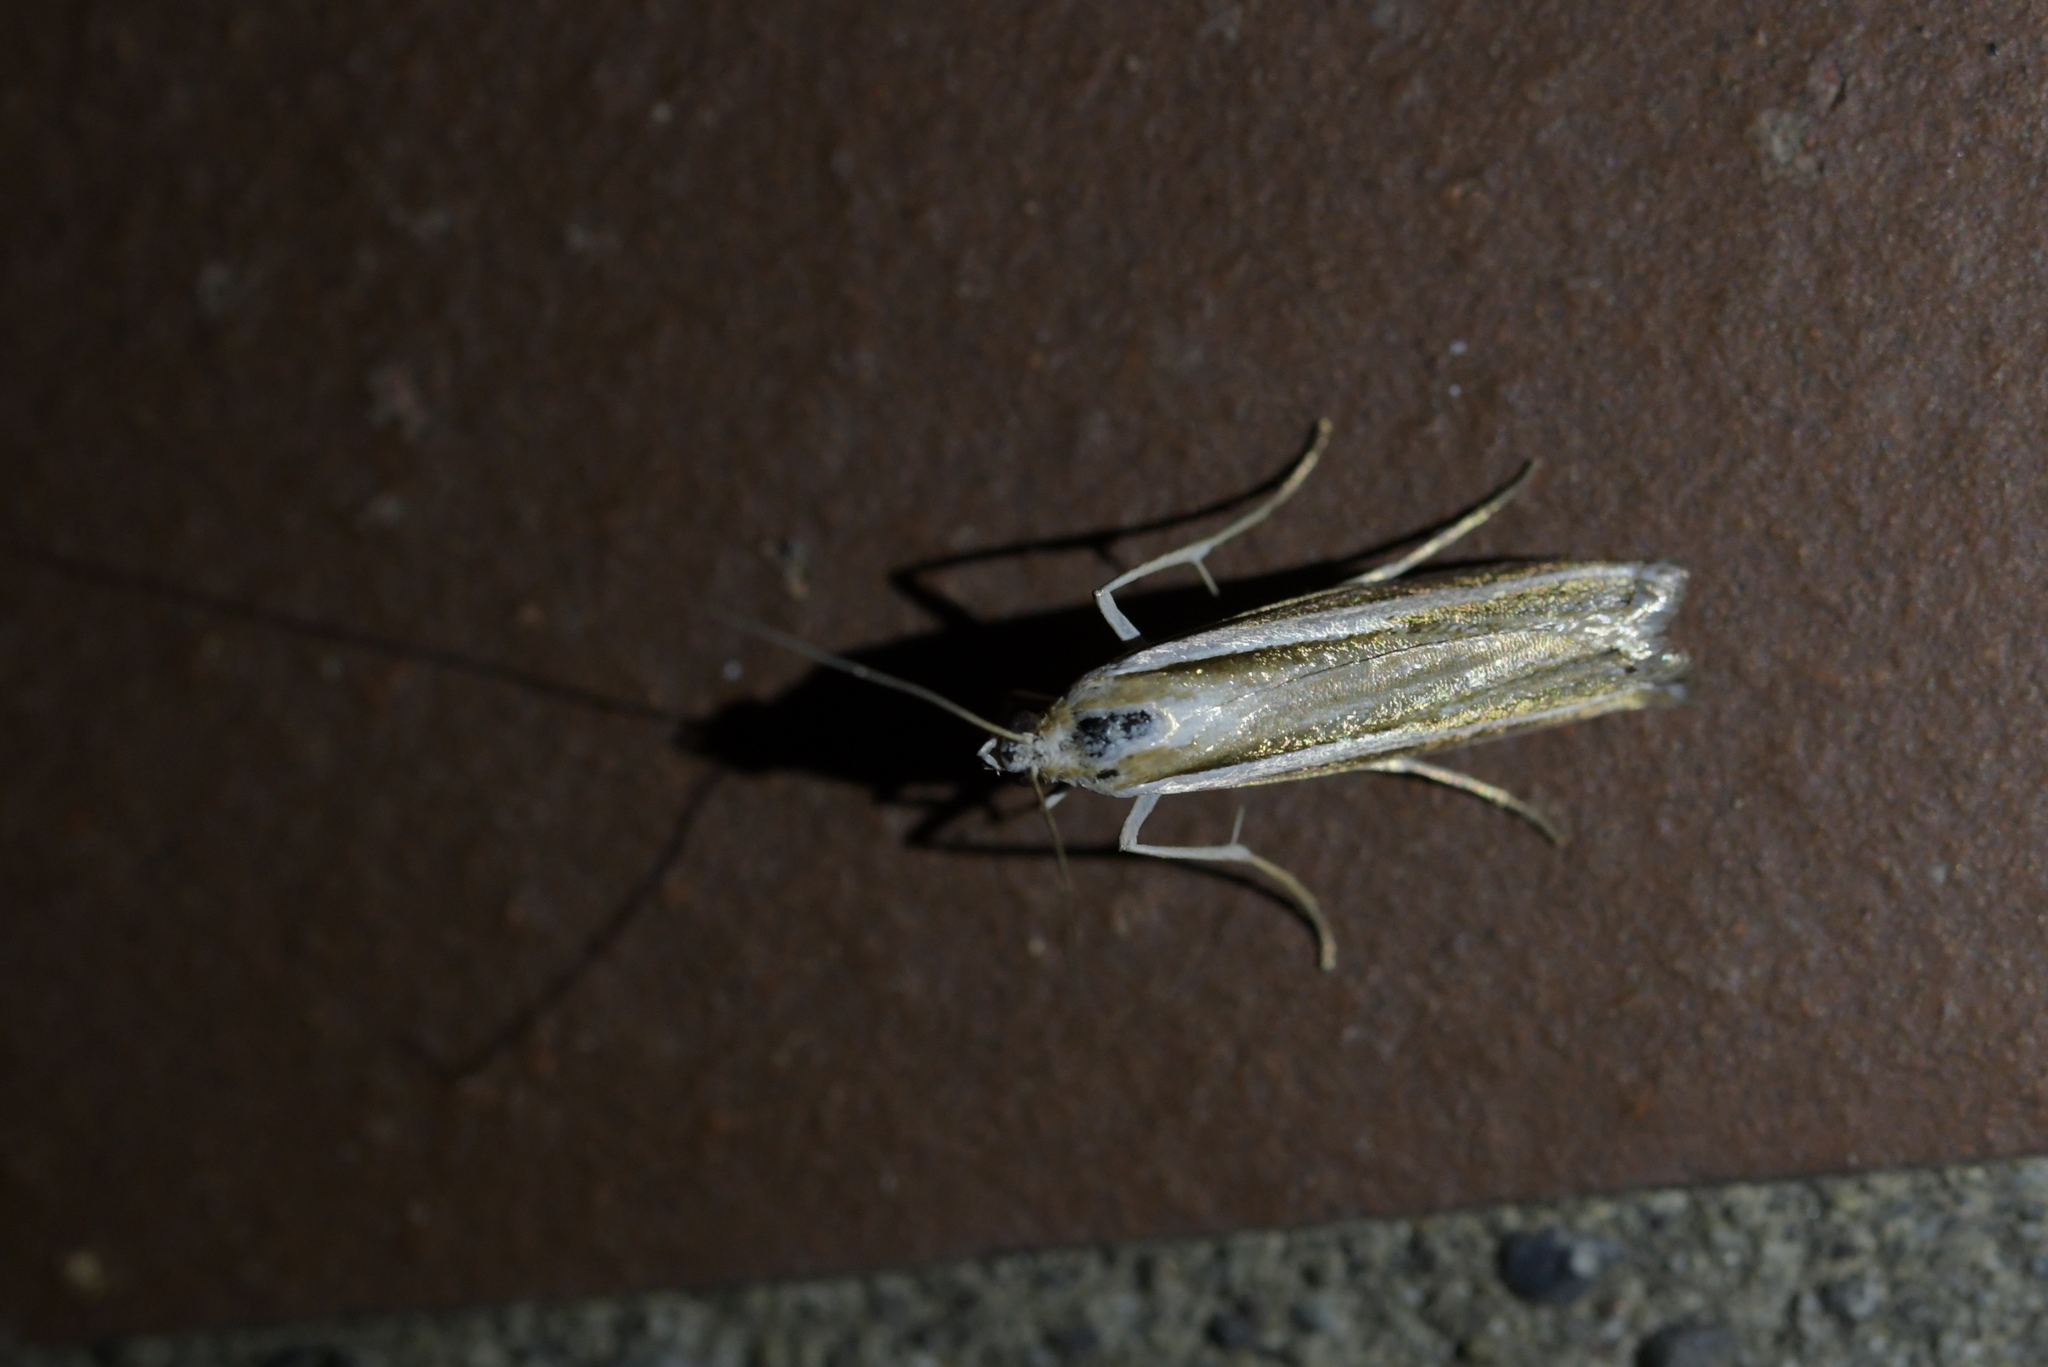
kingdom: Animalia
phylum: Arthropoda
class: Insecta
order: Lepidoptera
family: Crambidae
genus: Orocrambus
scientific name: Orocrambus vittellus
